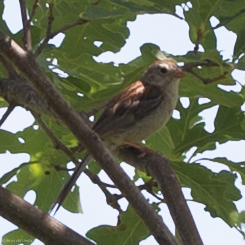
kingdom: Animalia
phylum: Chordata
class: Aves
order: Passeriformes
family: Passerellidae
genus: Spizella
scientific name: Spizella pusilla
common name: Field sparrow
